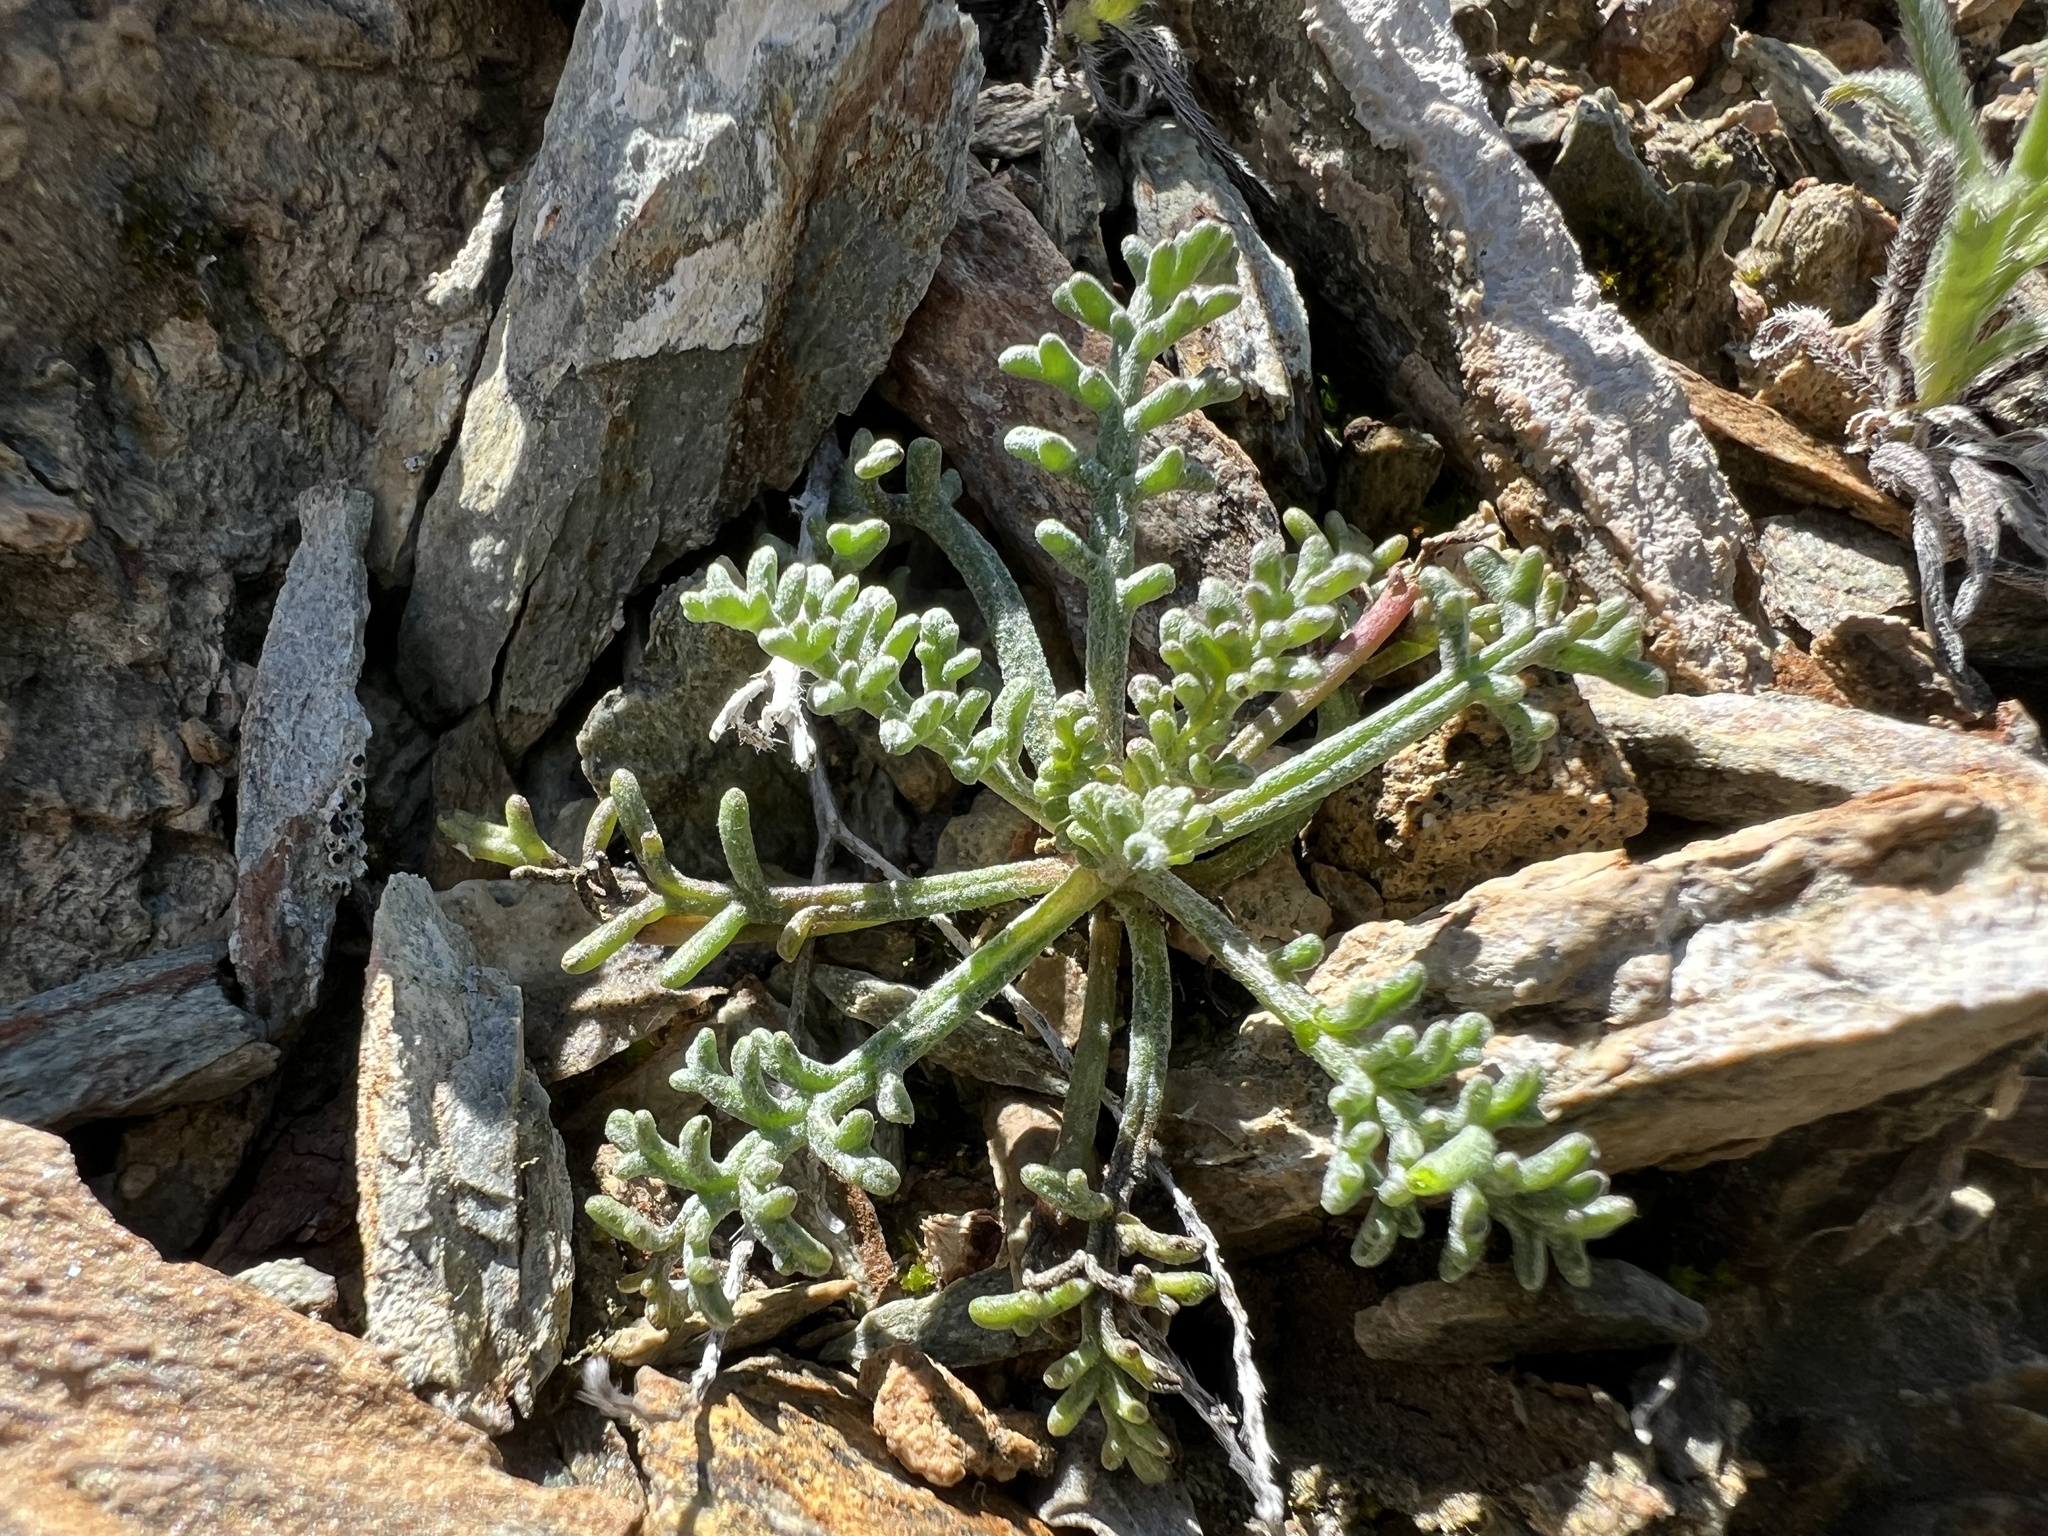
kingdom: Plantae
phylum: Tracheophyta
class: Magnoliopsida
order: Asterales
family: Asteraceae
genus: Chaenactis
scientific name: Chaenactis stevioides
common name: Desert pincushion
